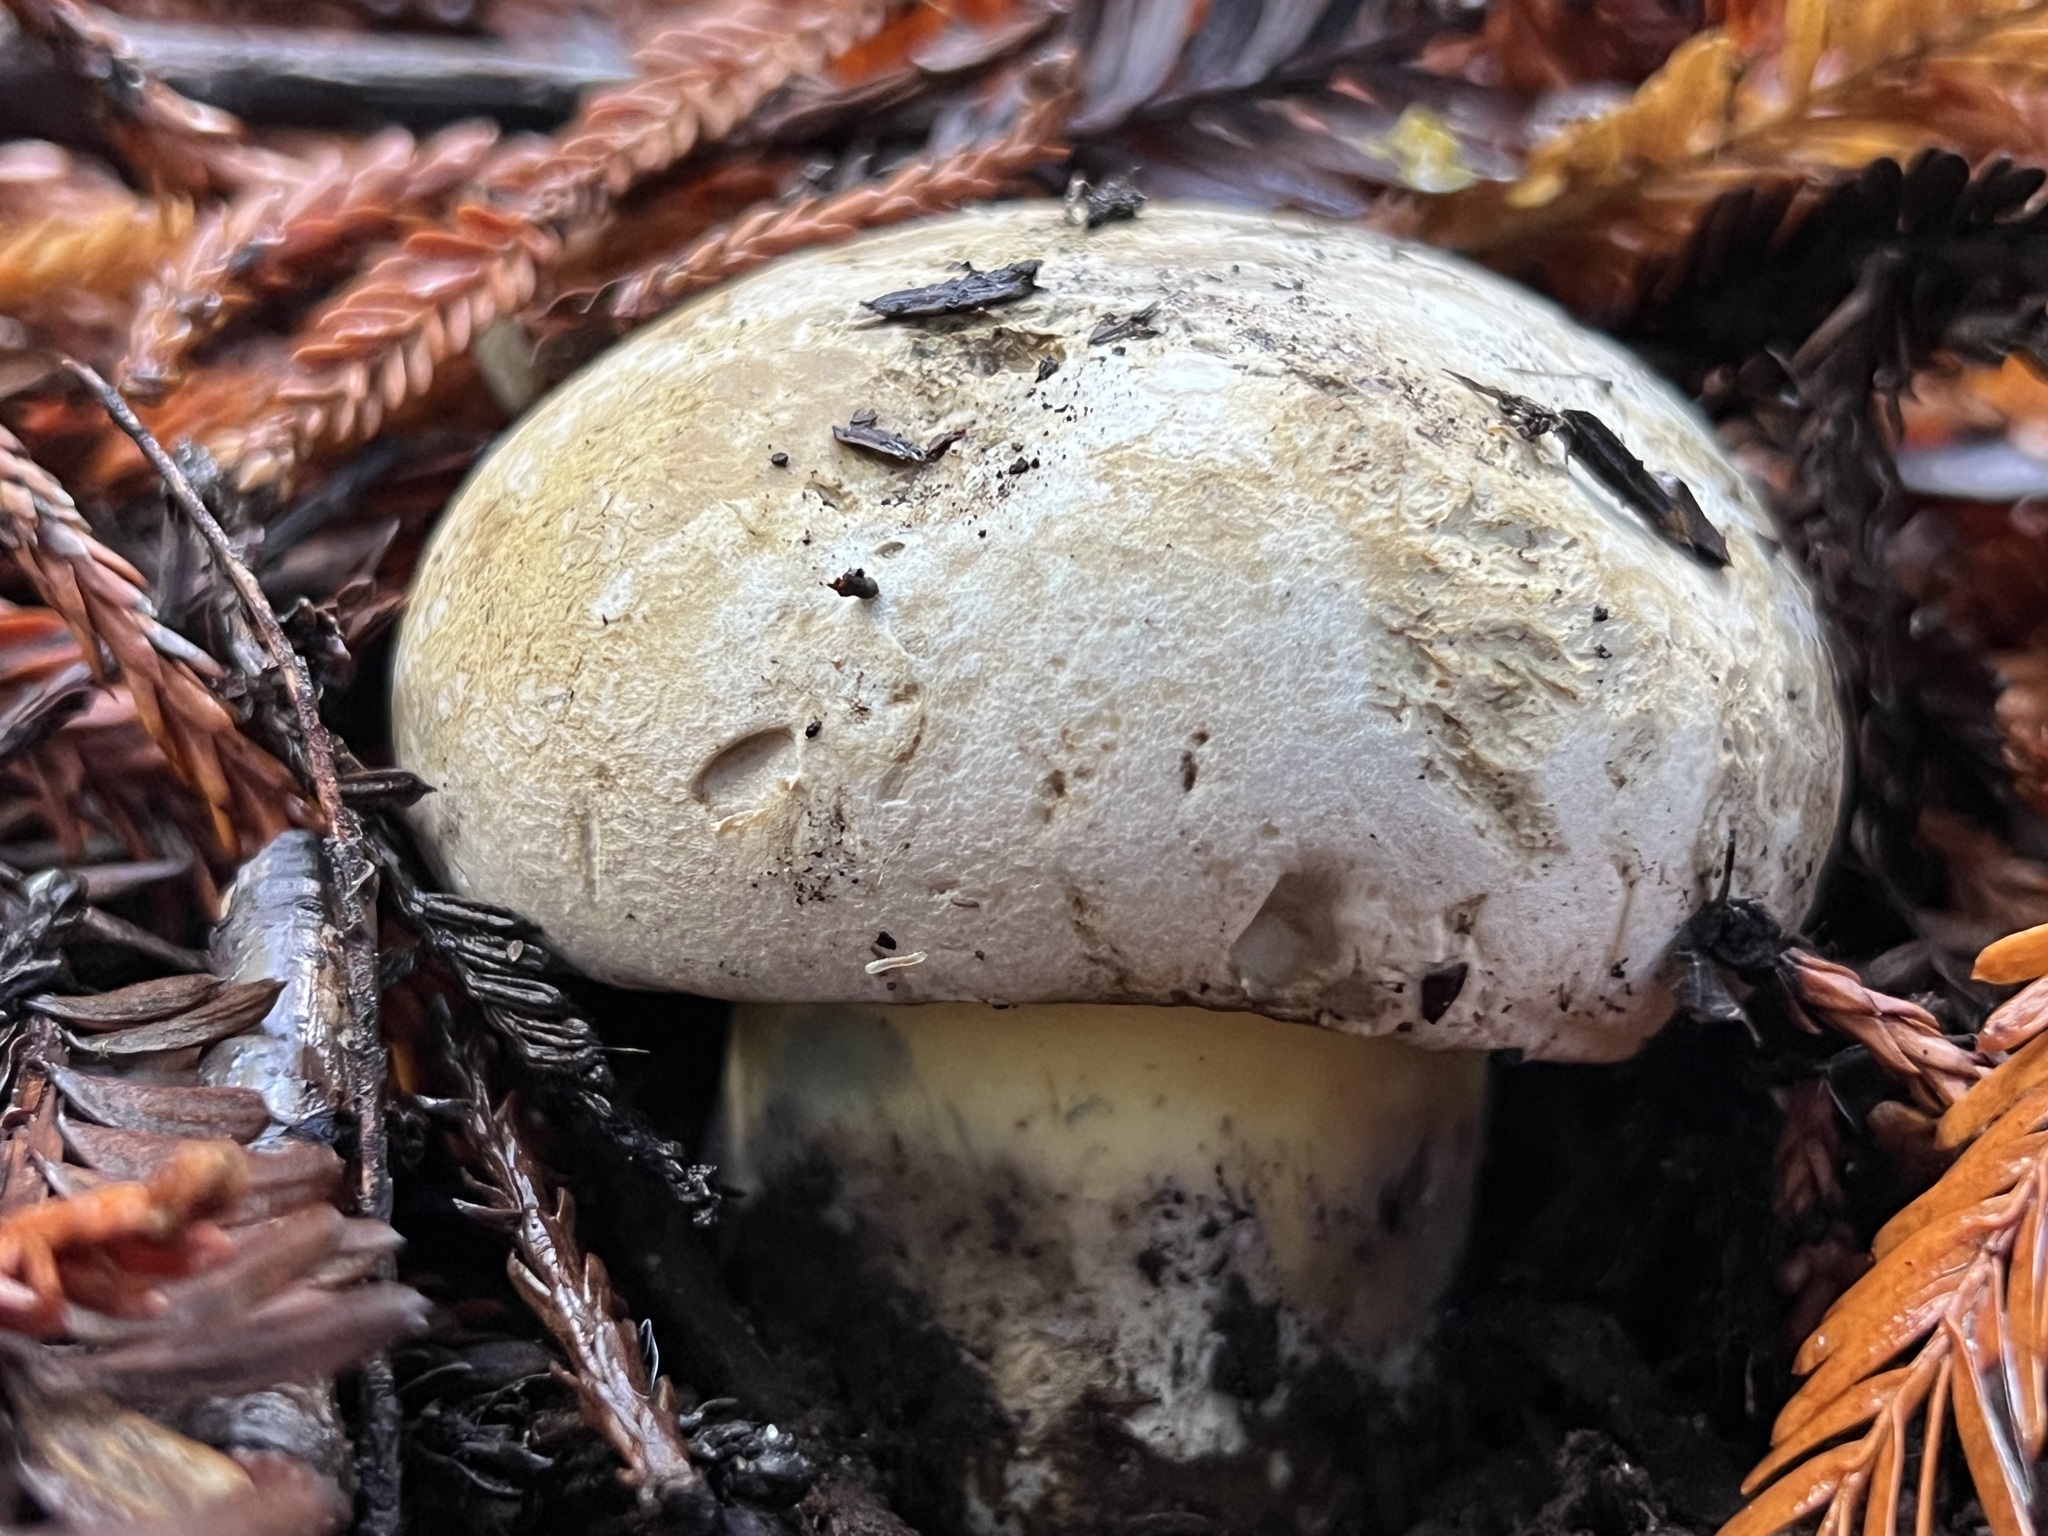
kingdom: Fungi
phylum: Basidiomycota
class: Agaricomycetes
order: Boletales
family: Boletaceae
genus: Caloboletus
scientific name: Caloboletus marshii
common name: Ben's bitter bolete
